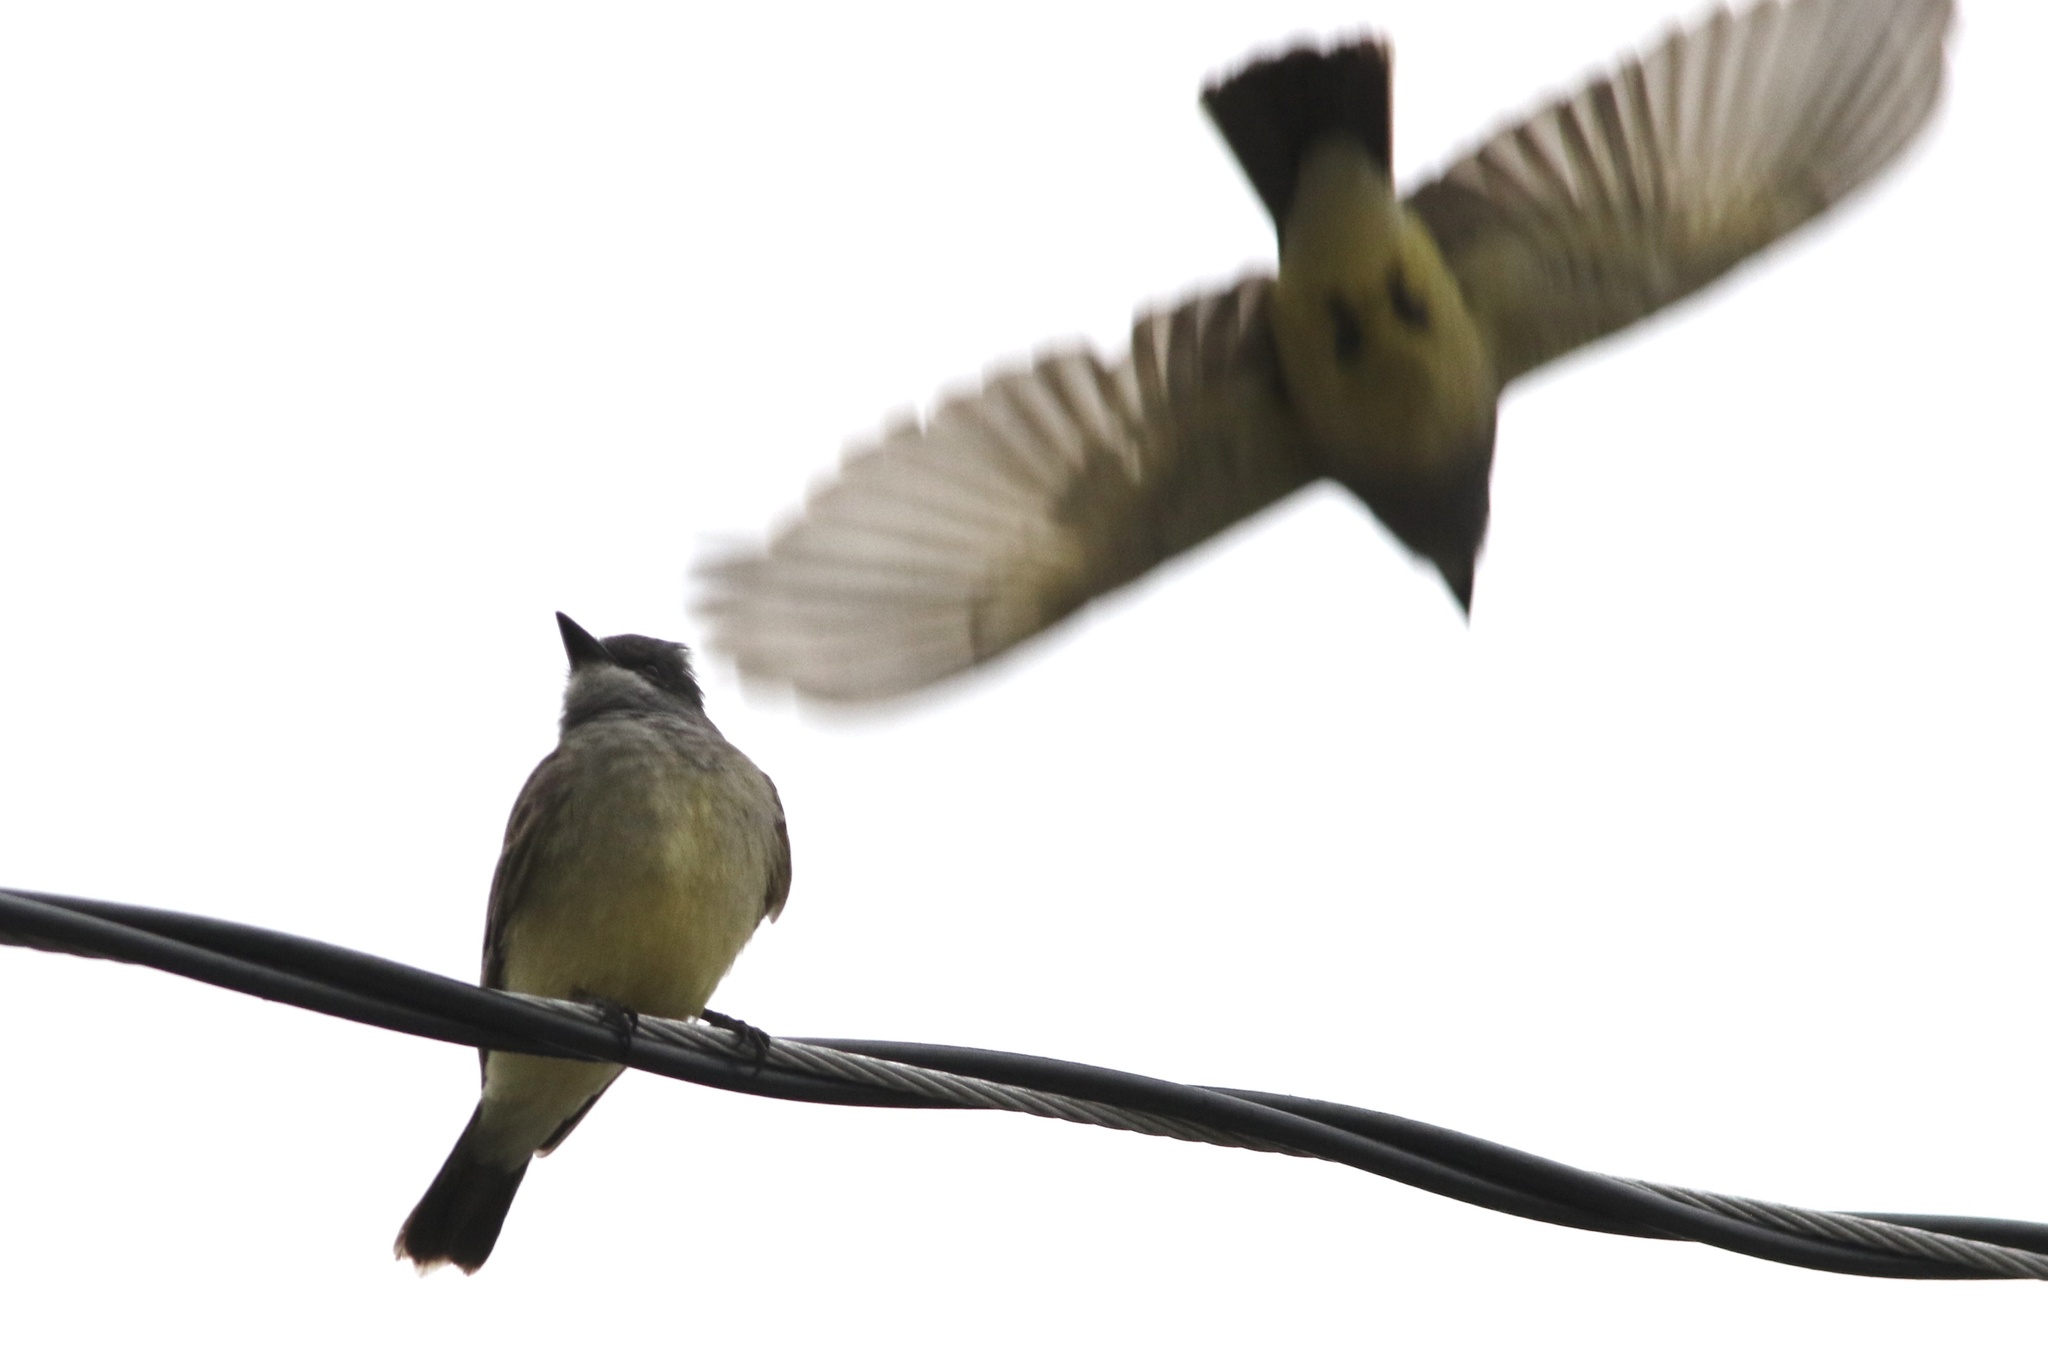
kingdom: Animalia
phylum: Chordata
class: Aves
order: Passeriformes
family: Tyrannidae
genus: Tyrannus
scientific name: Tyrannus vociferans
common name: Cassin's kingbird
